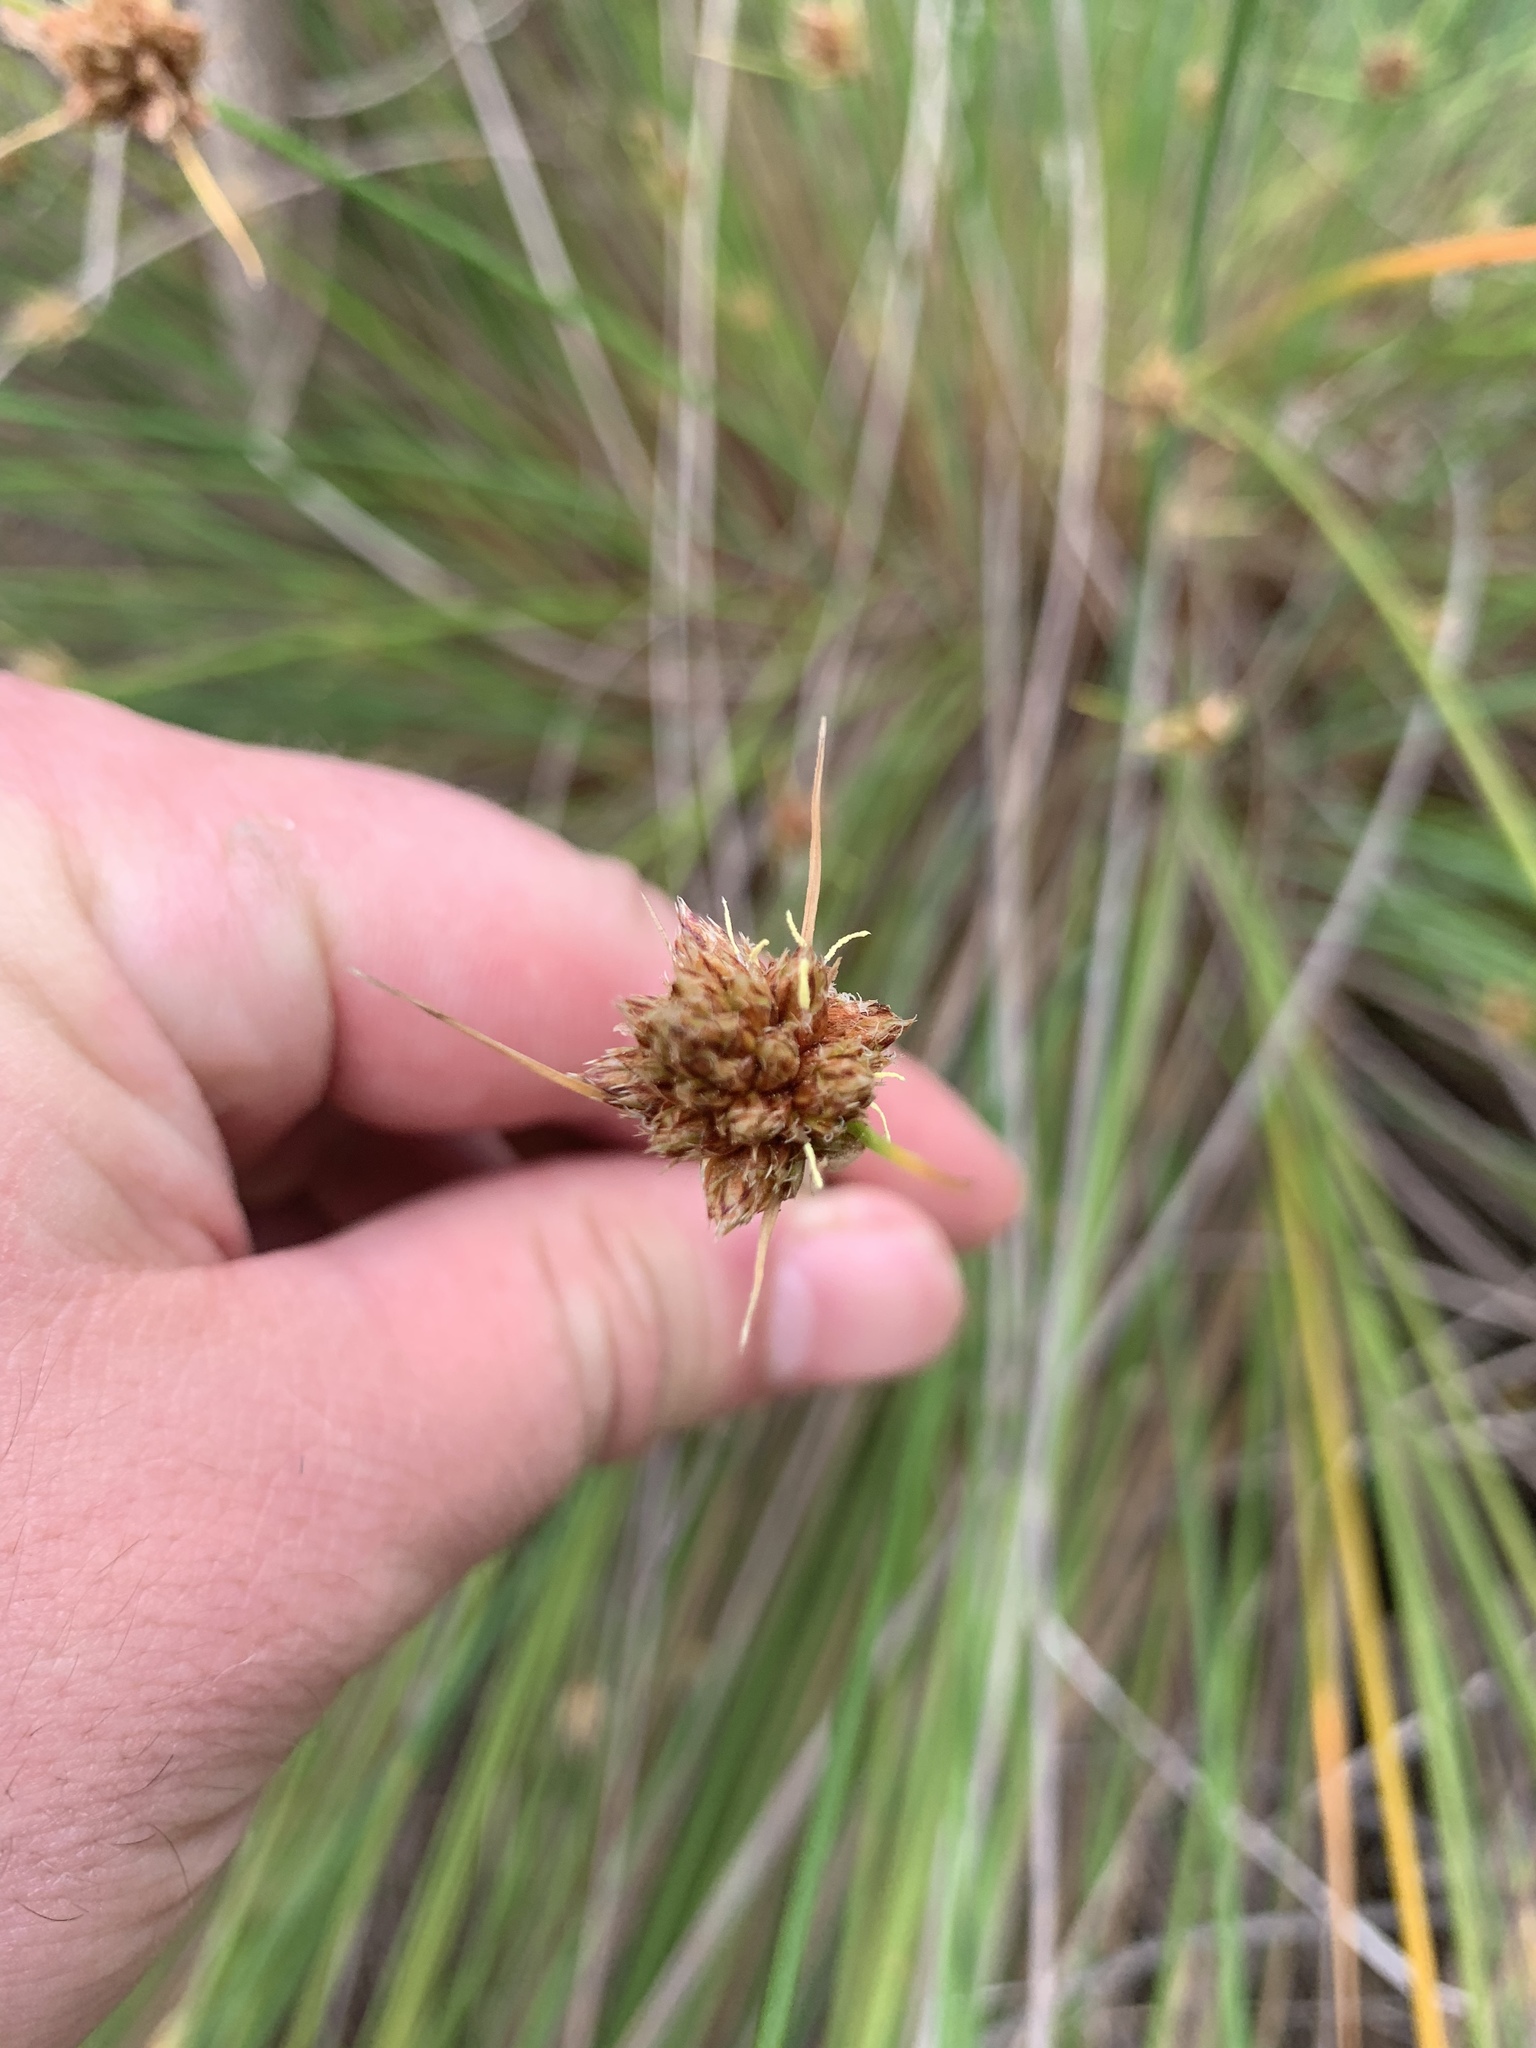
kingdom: Plantae
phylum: Tracheophyta
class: Liliopsida
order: Poales
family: Cyperaceae
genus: Ficinia
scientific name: Ficinia brevifolia
